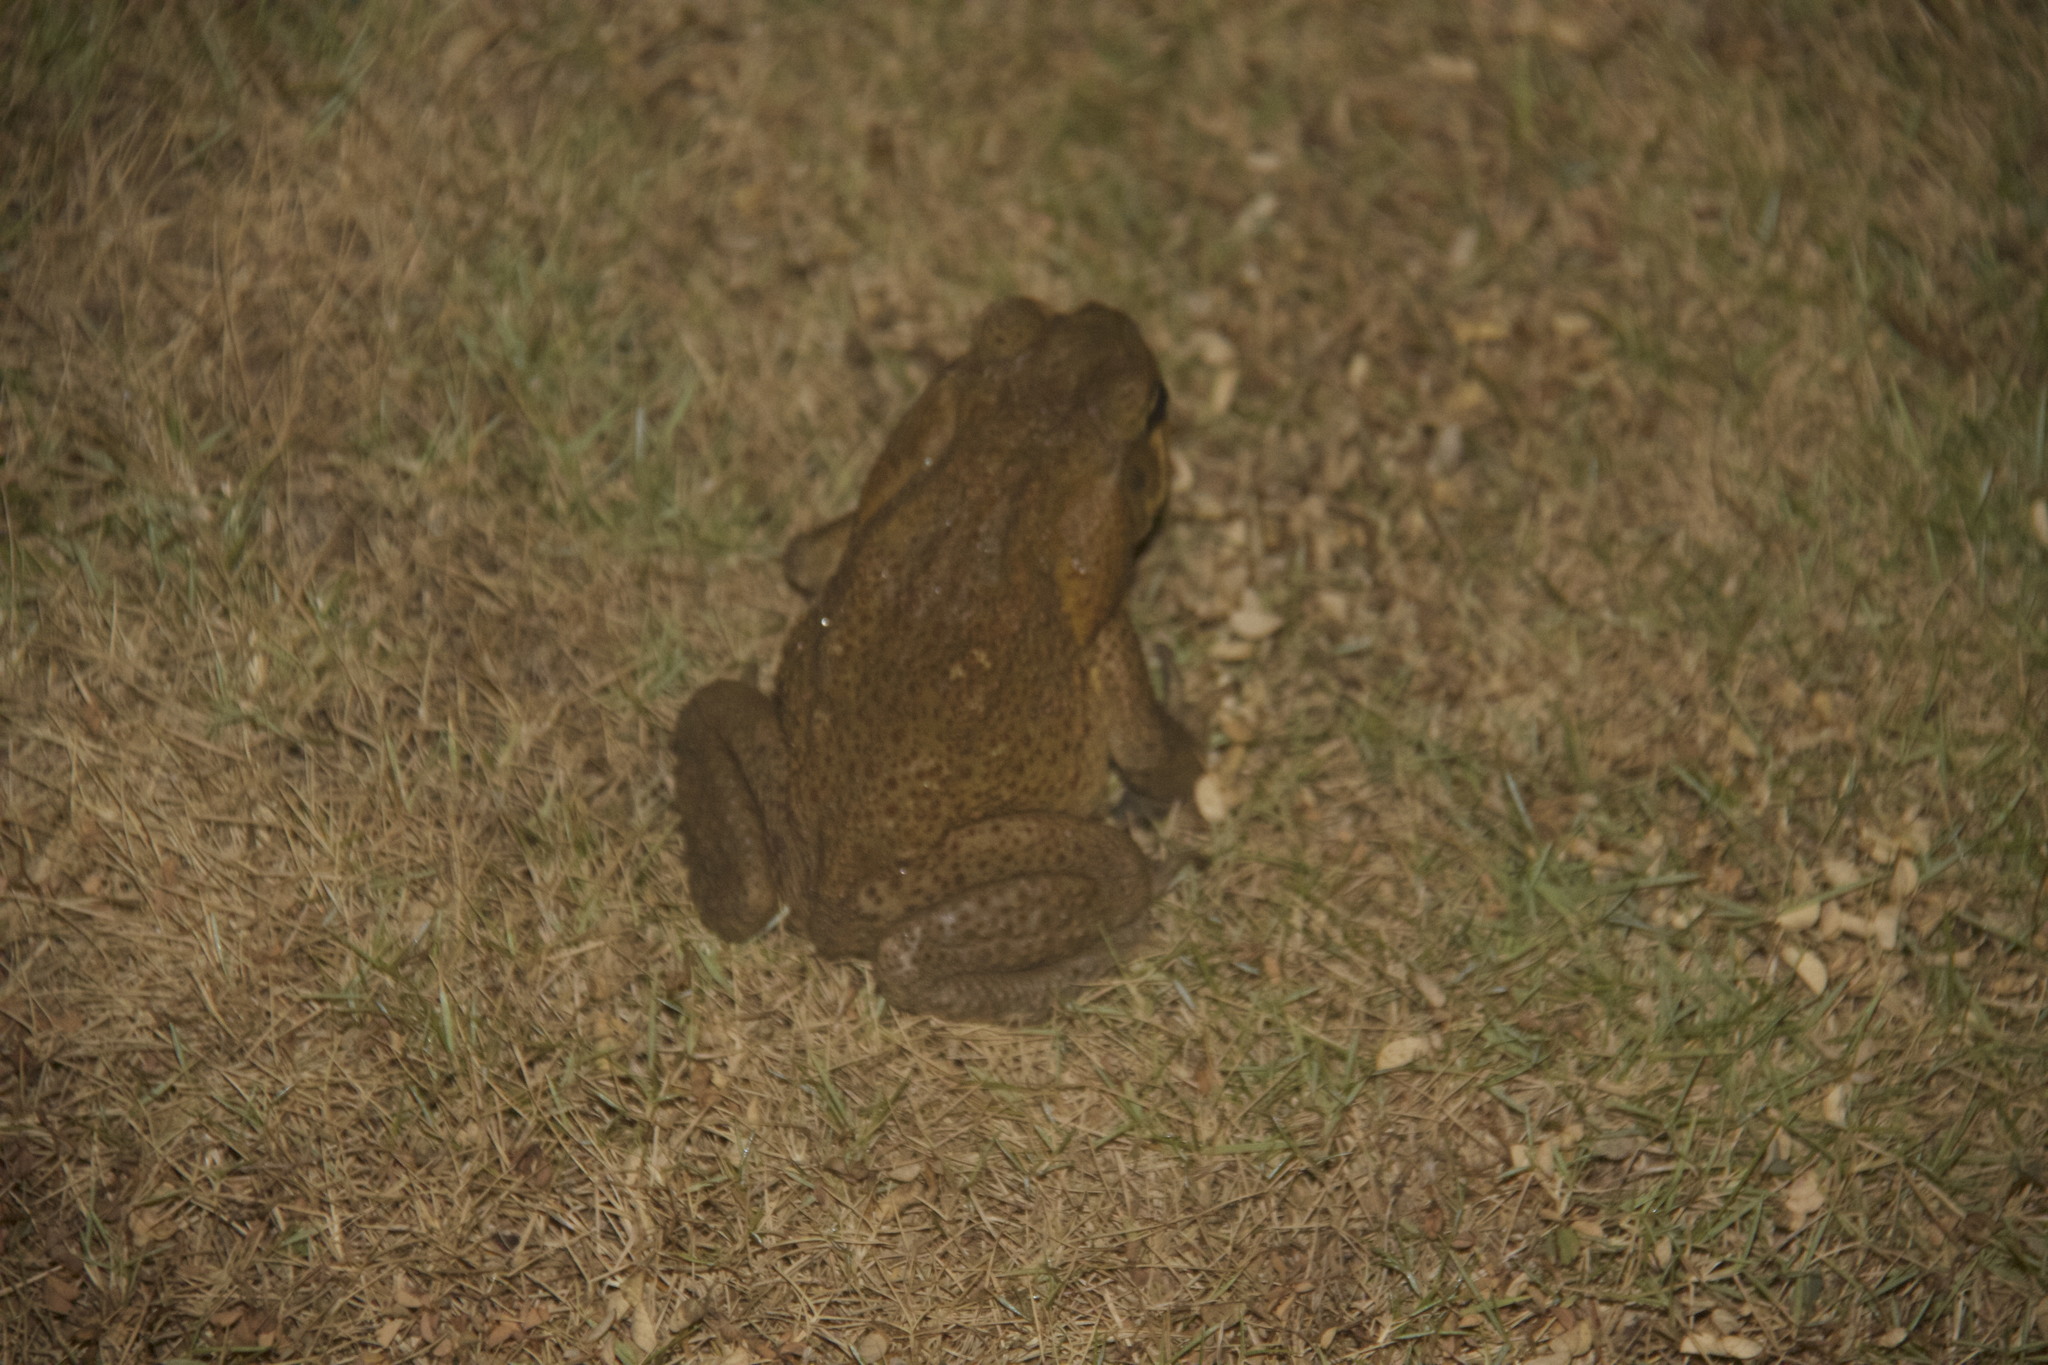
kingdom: Animalia
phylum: Chordata
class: Amphibia
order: Anura
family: Bufonidae
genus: Rhinella
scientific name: Rhinella marina
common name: Cane toad
